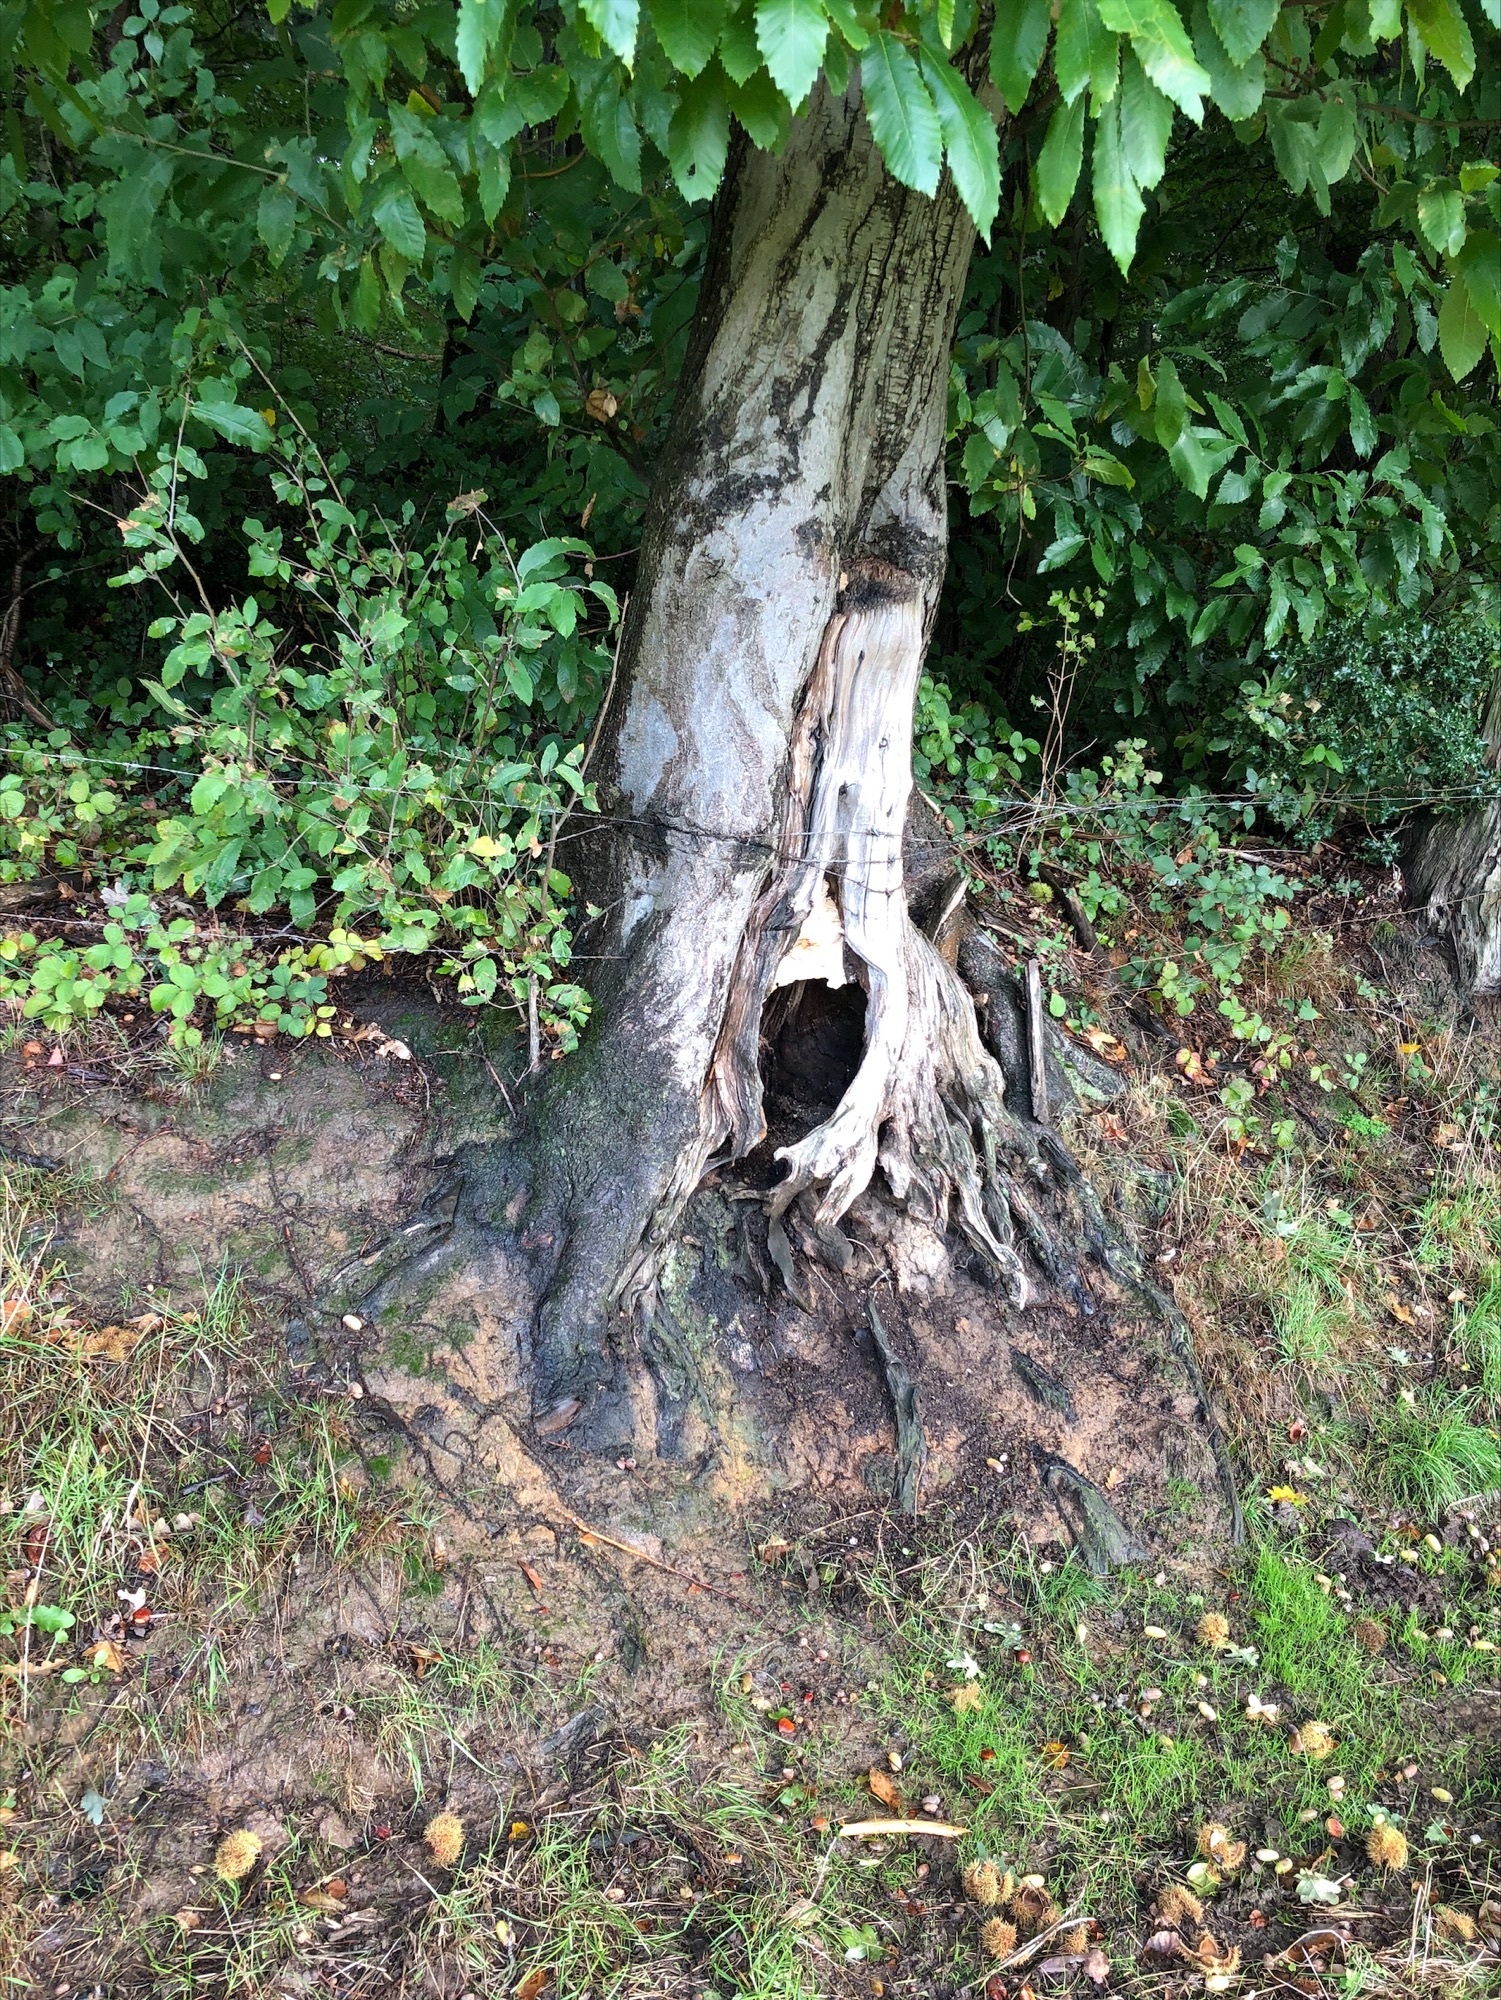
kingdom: Animalia
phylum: Arthropoda
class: Insecta
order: Hymenoptera
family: Vespidae
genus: Vespa
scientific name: Vespa crabro
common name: Hornet
